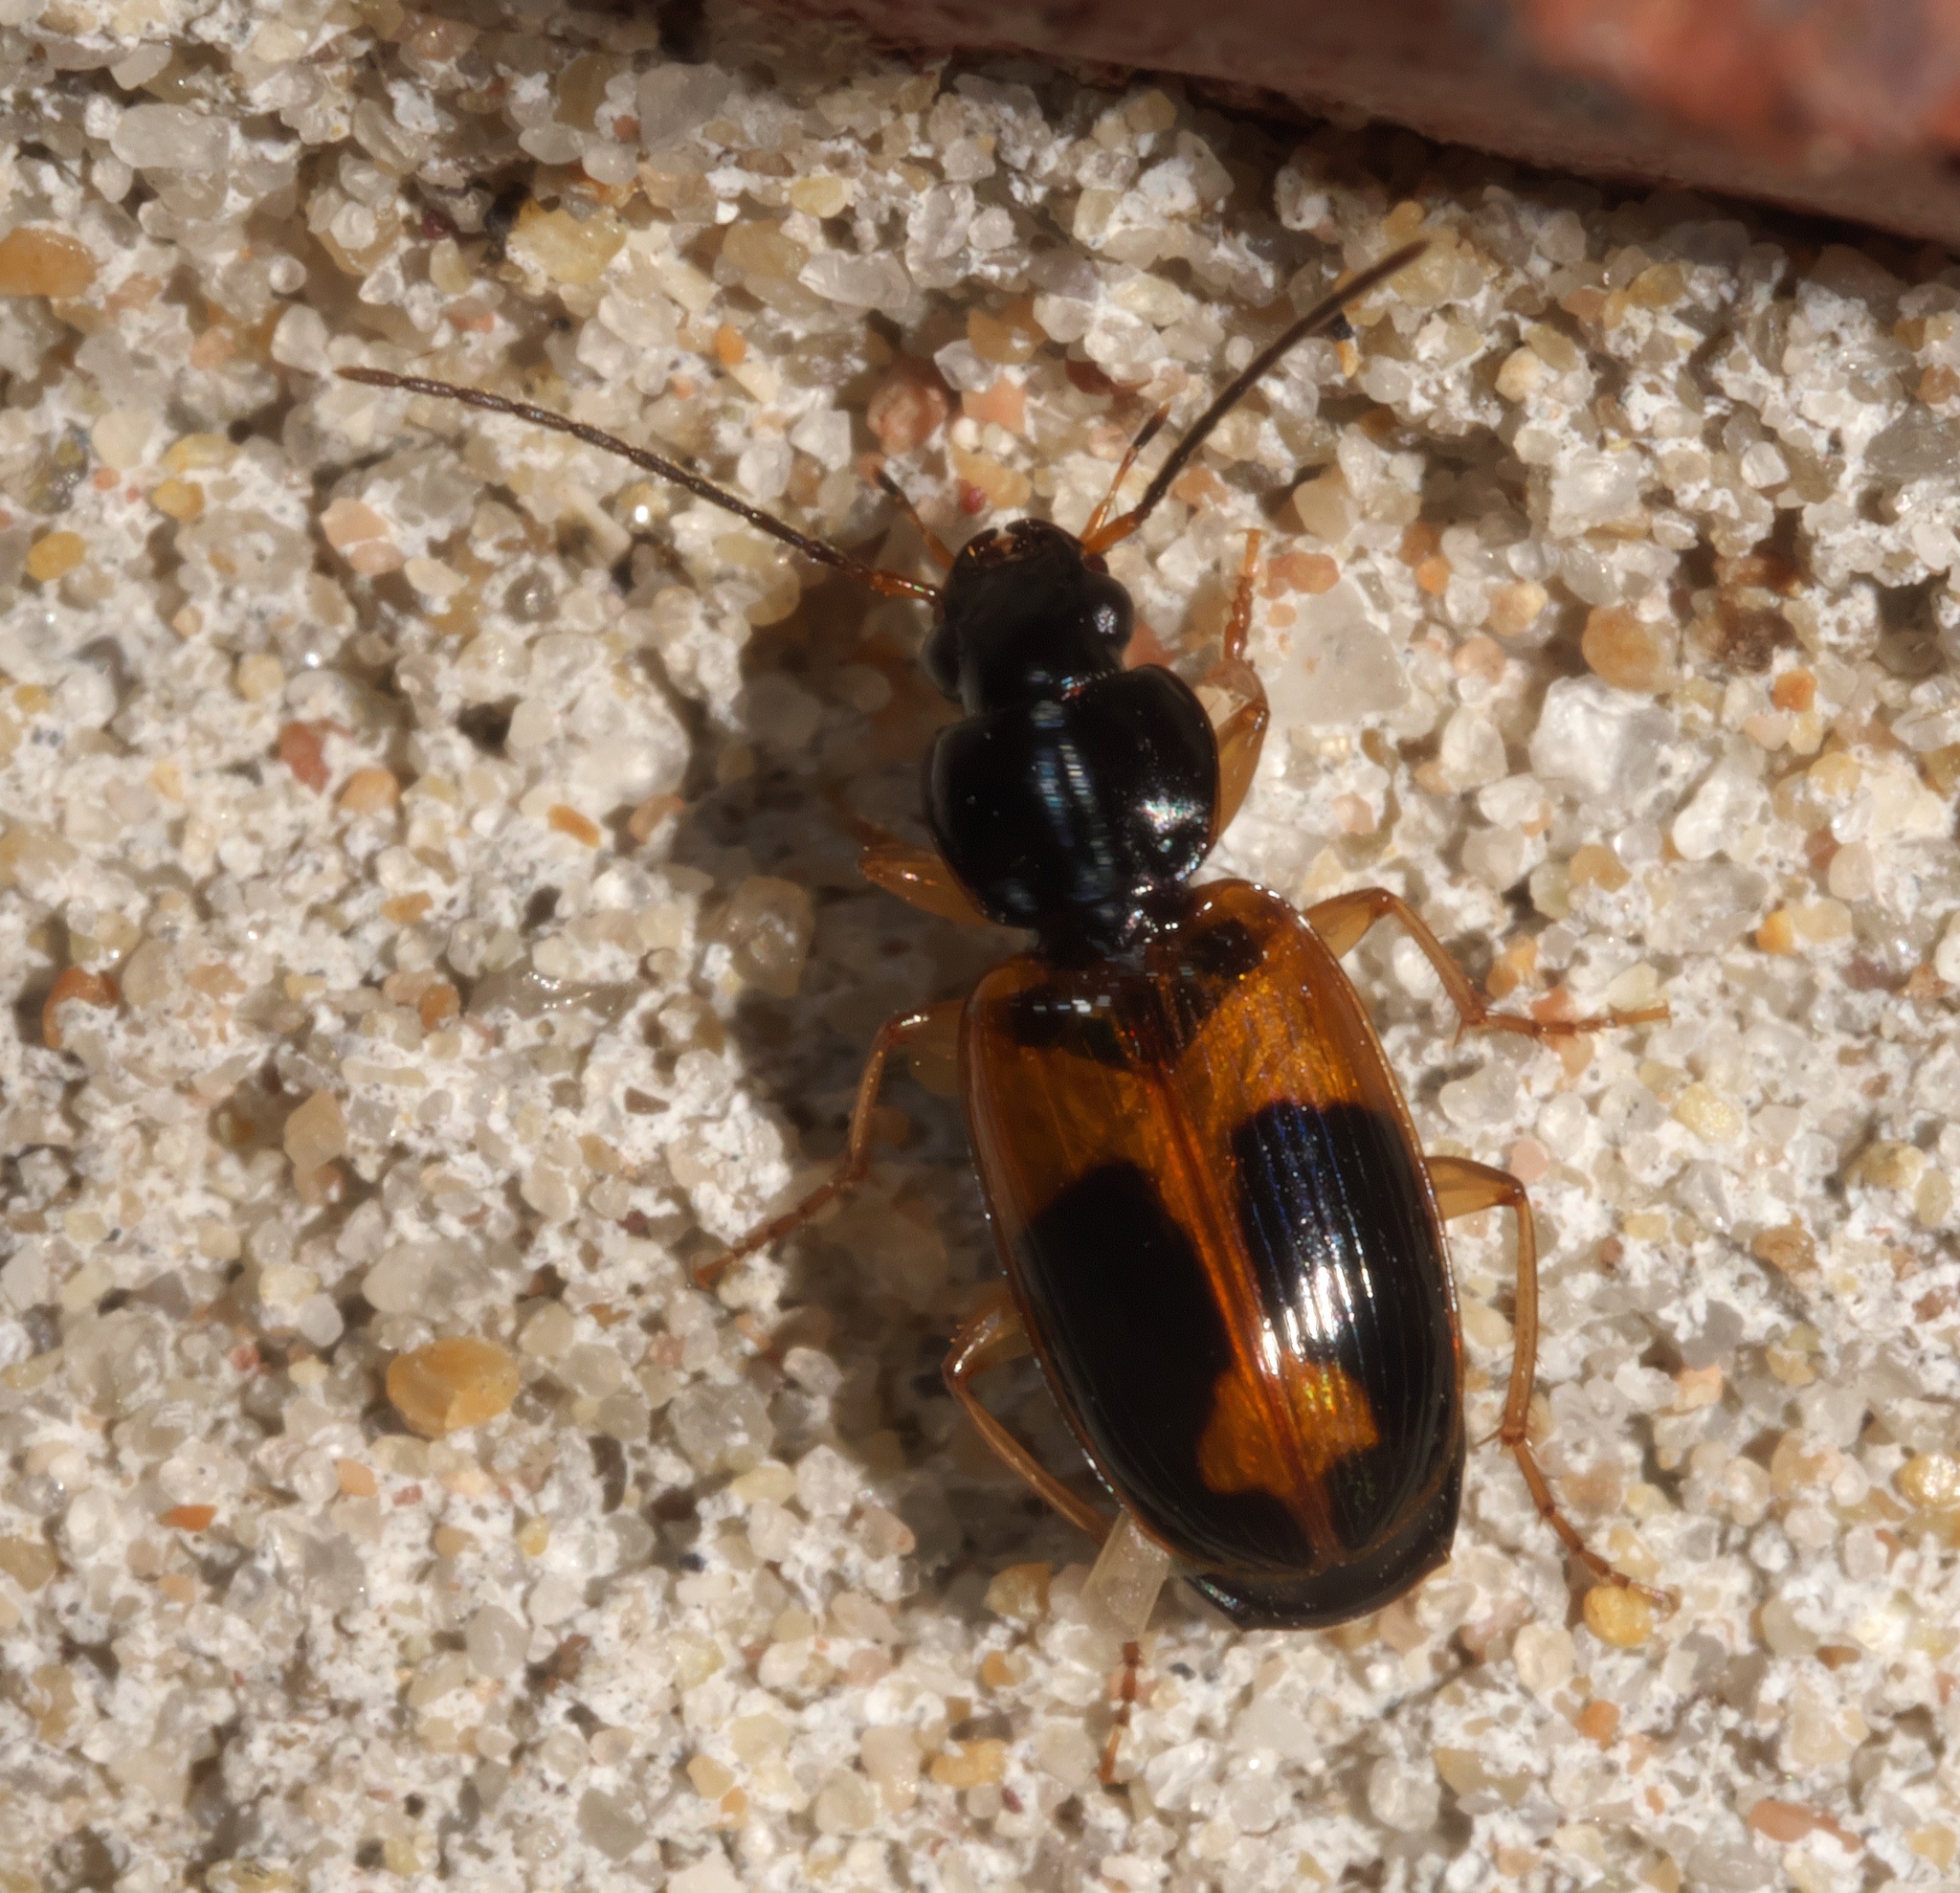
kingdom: Animalia
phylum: Arthropoda
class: Insecta
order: Coleoptera
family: Carabidae
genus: Badister
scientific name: Badister elegans
